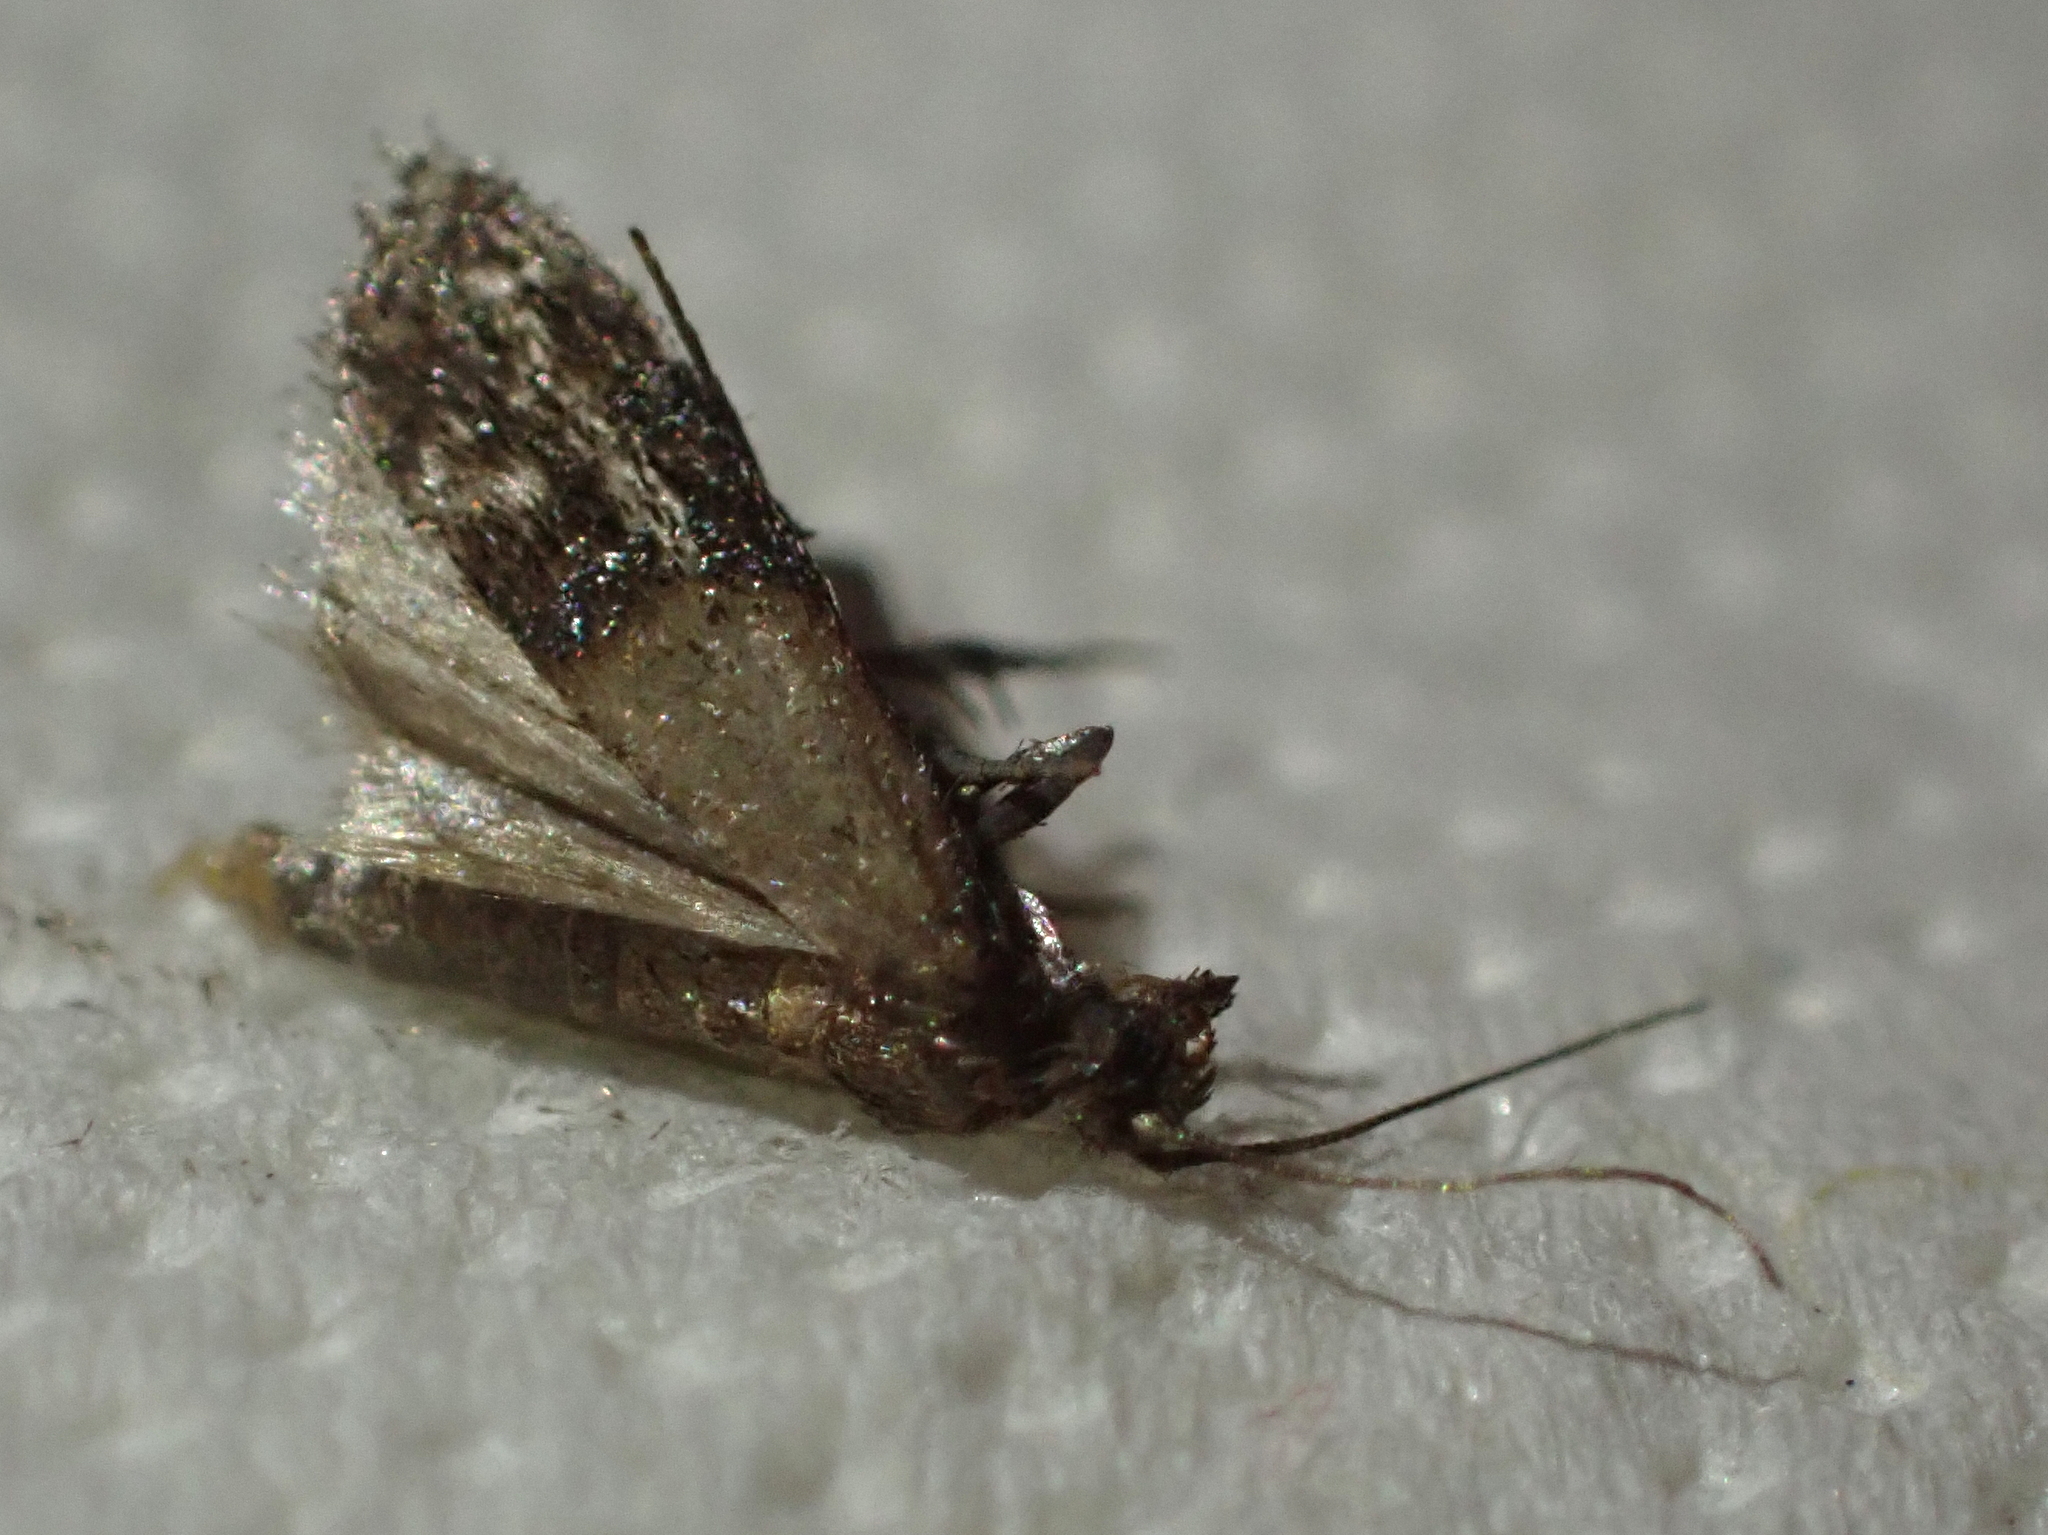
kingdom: Animalia
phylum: Arthropoda
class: Insecta
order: Lepidoptera
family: Pyralidae
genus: Plodia
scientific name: Plodia interpunctella
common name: Indian meal moth
